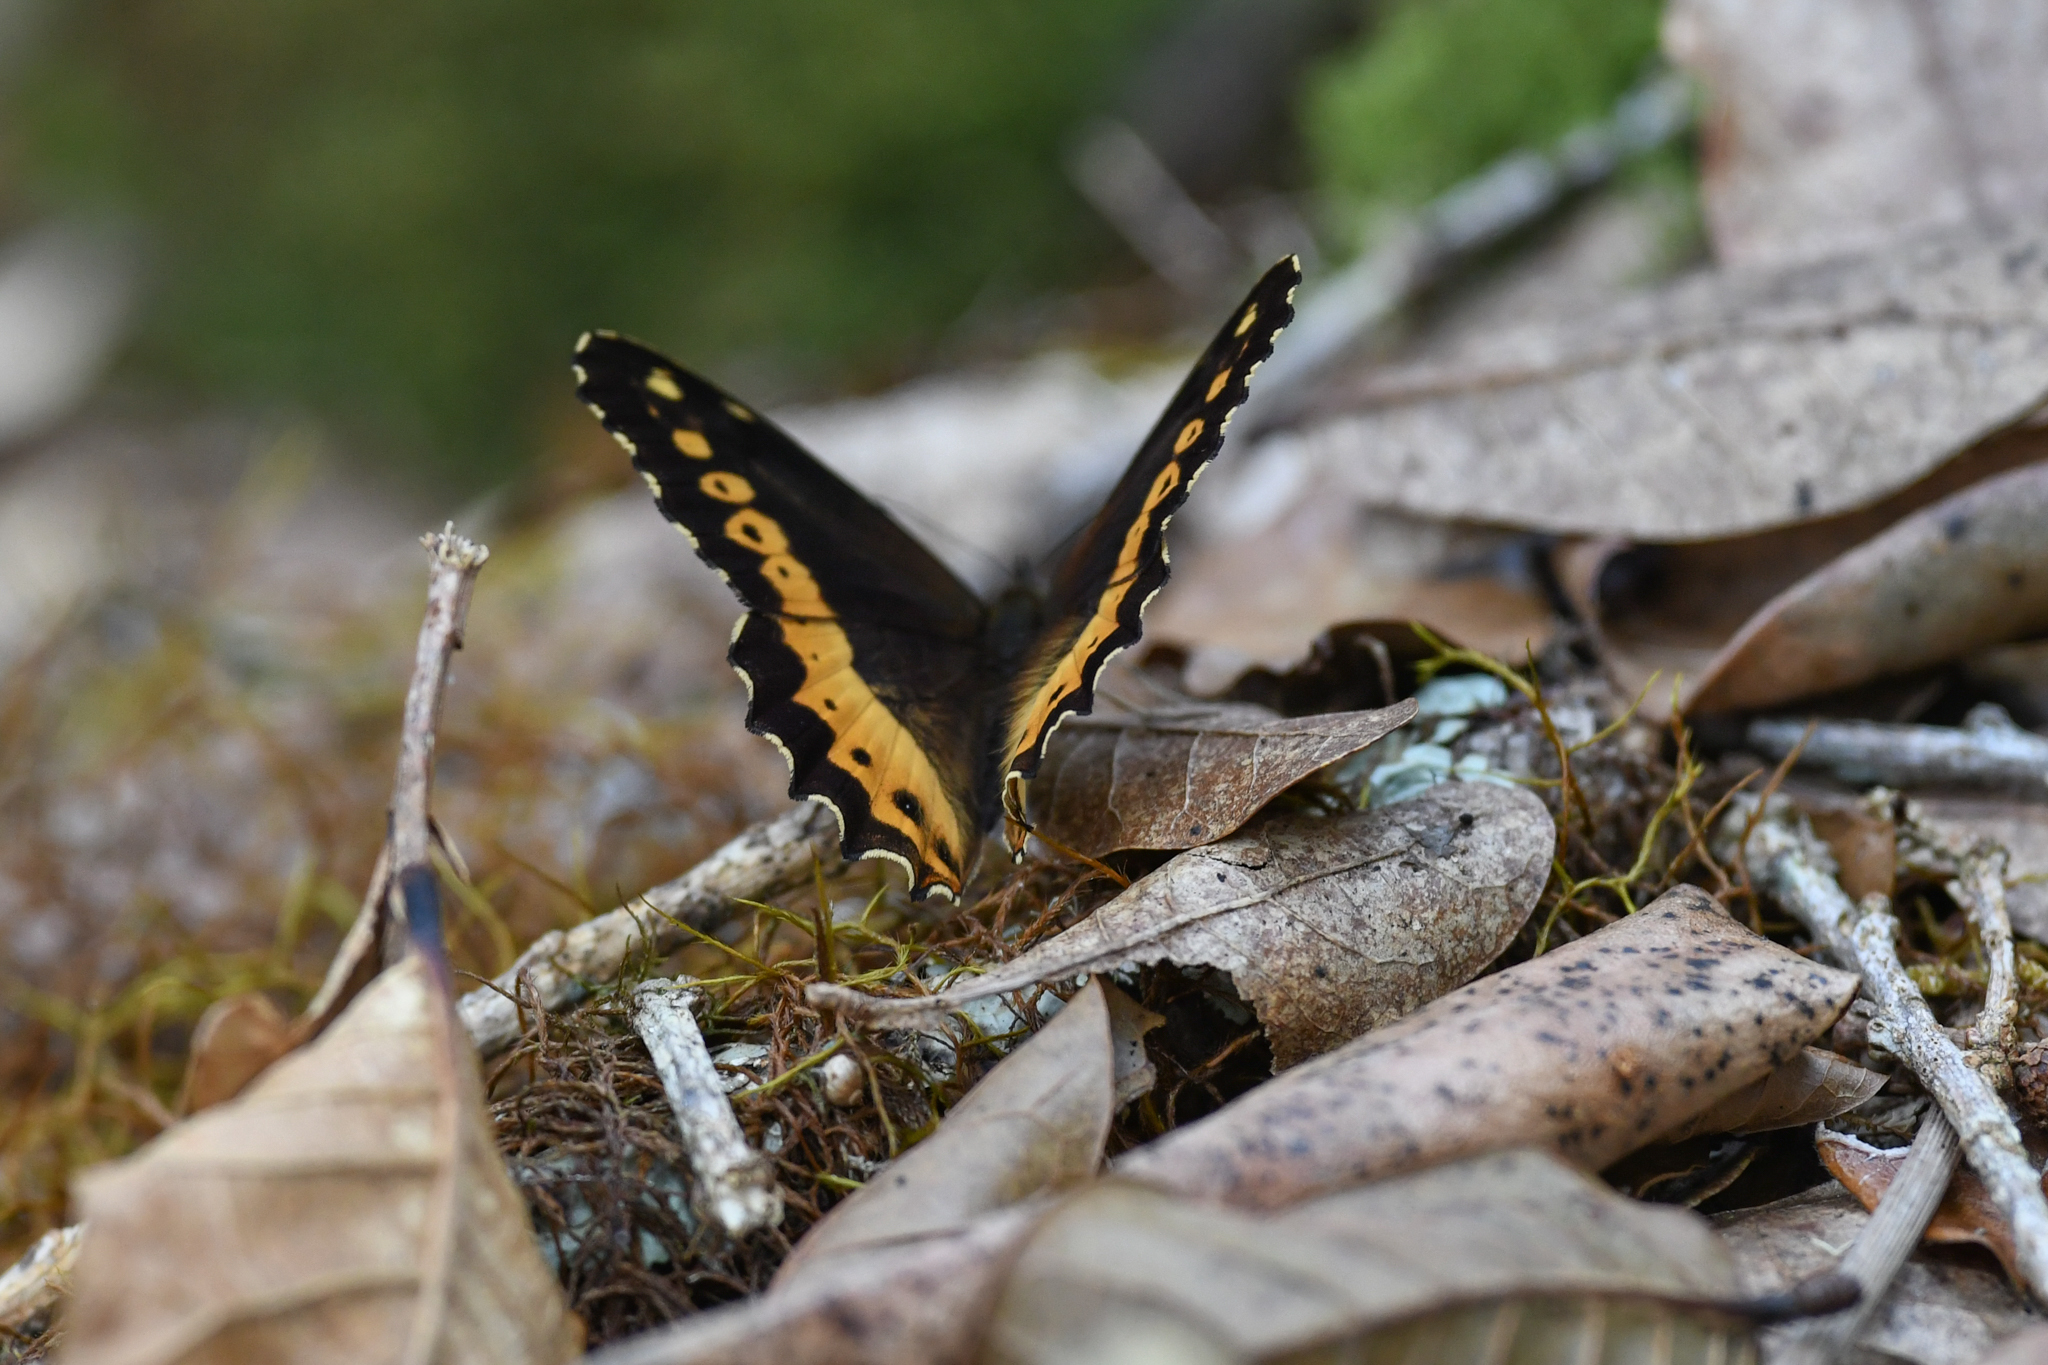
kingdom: Animalia
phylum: Arthropoda
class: Insecta
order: Lepidoptera
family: Nymphalidae
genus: Oxeoschistus
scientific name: Oxeoschistus euriphyle
